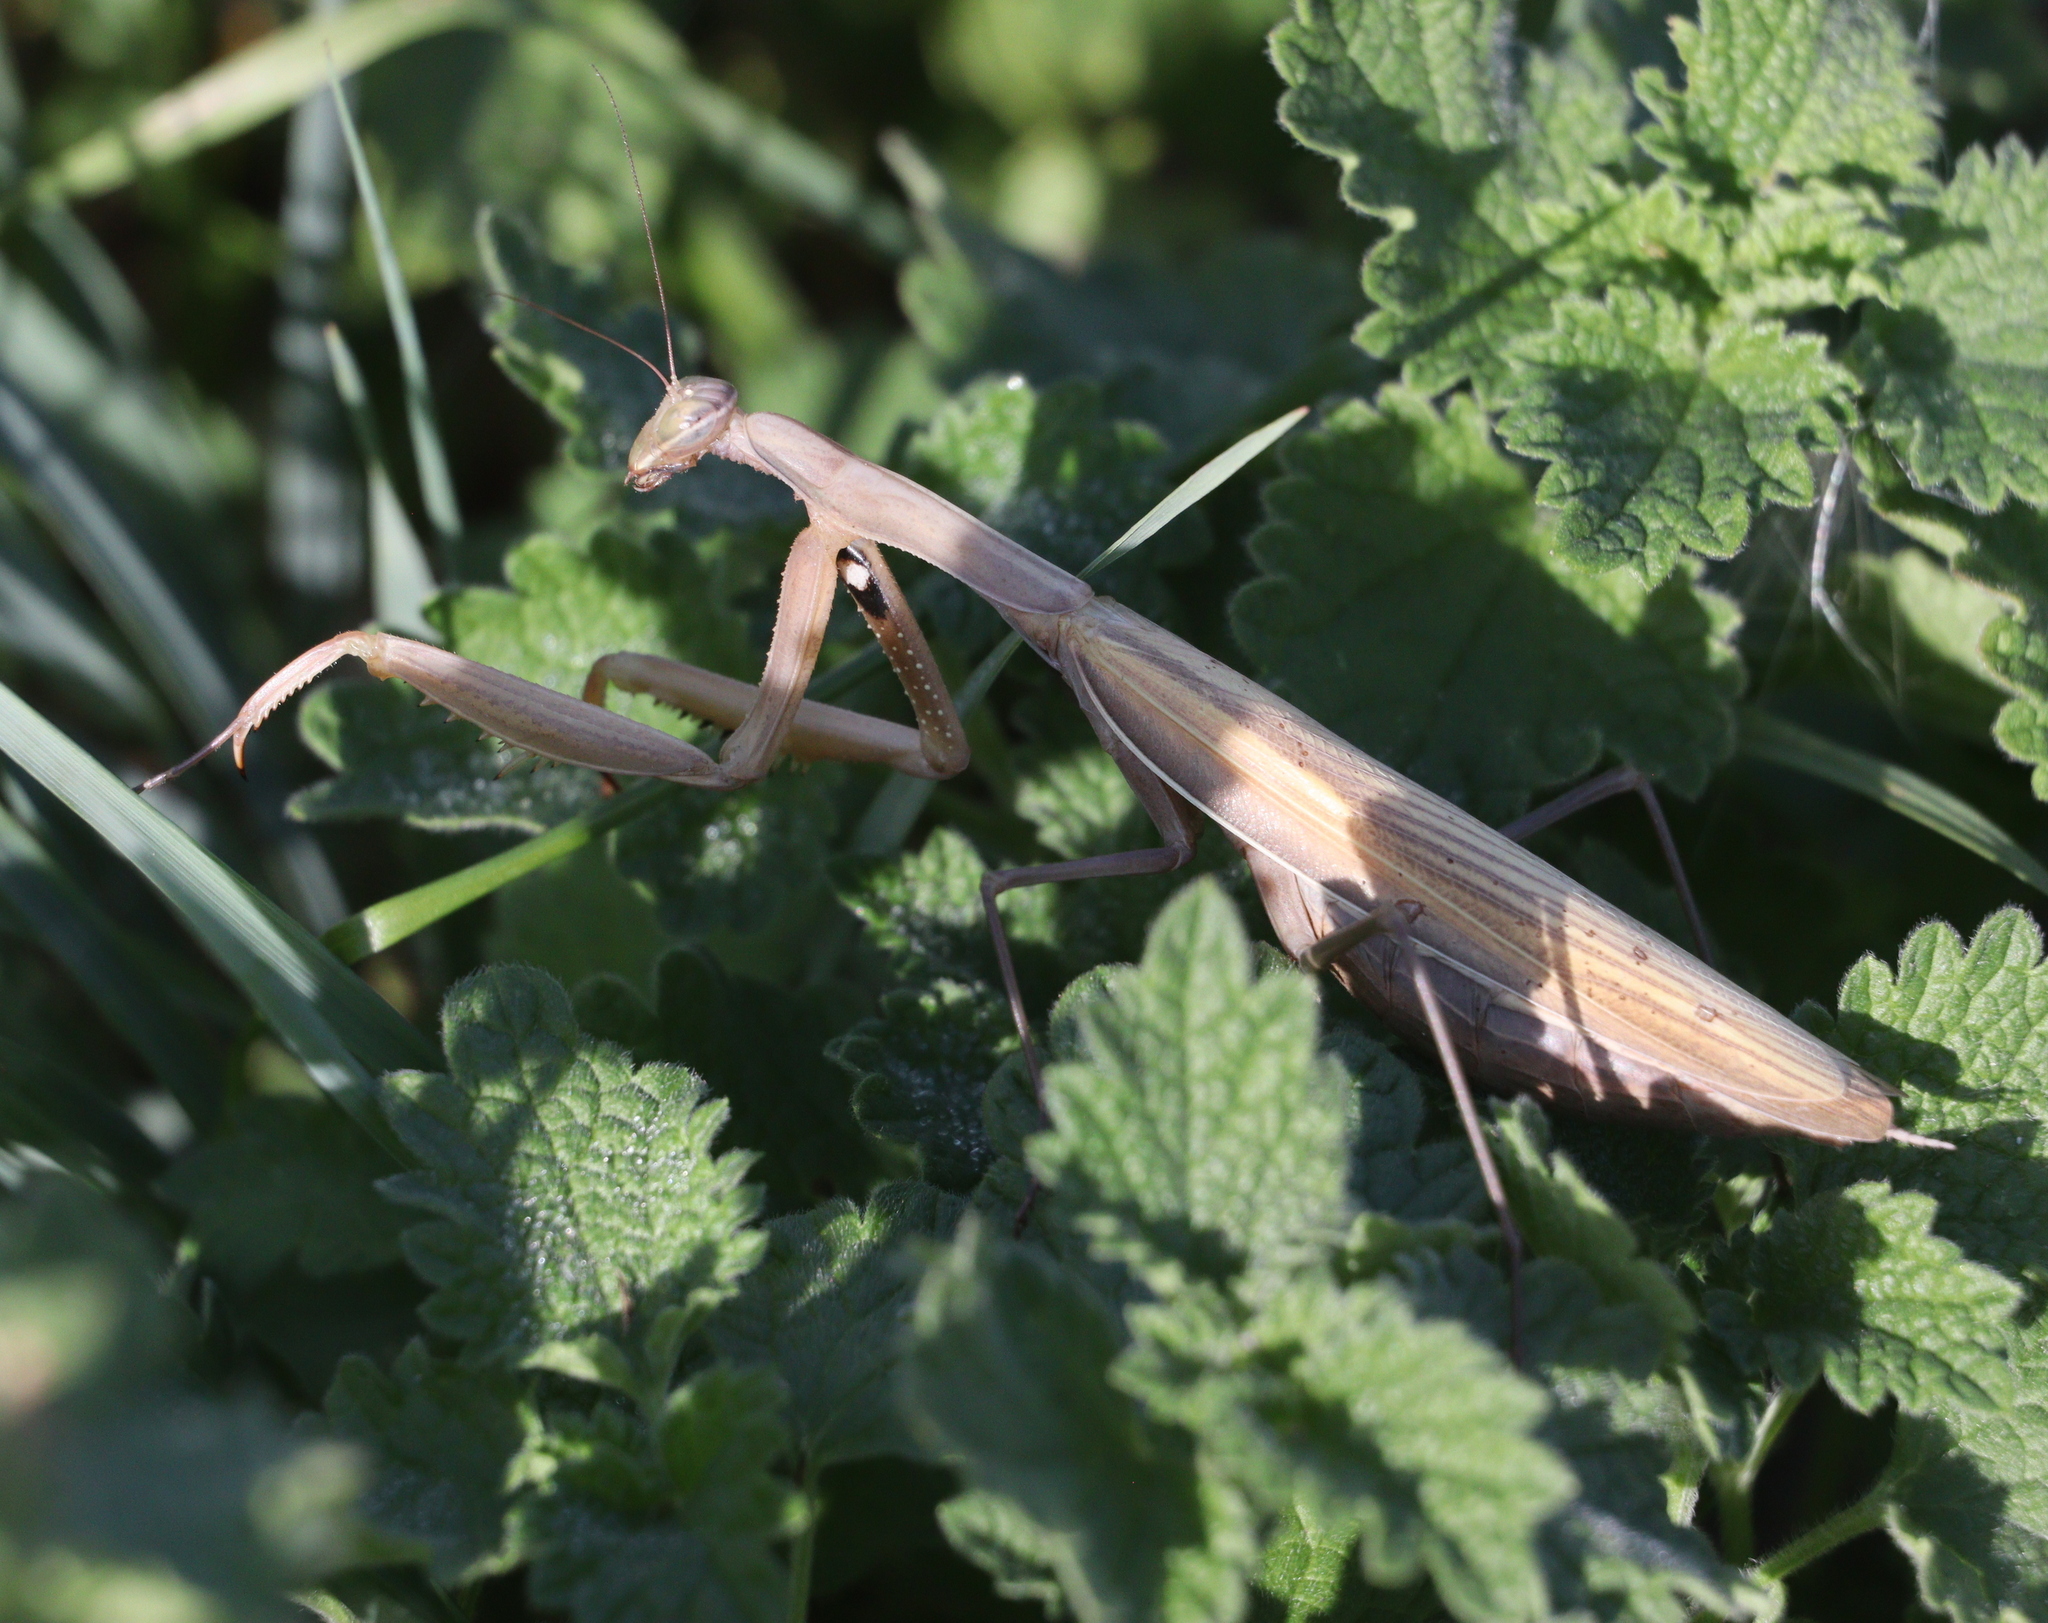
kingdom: Animalia
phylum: Arthropoda
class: Insecta
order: Mantodea
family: Mantidae
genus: Mantis
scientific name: Mantis religiosa
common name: Praying mantis
